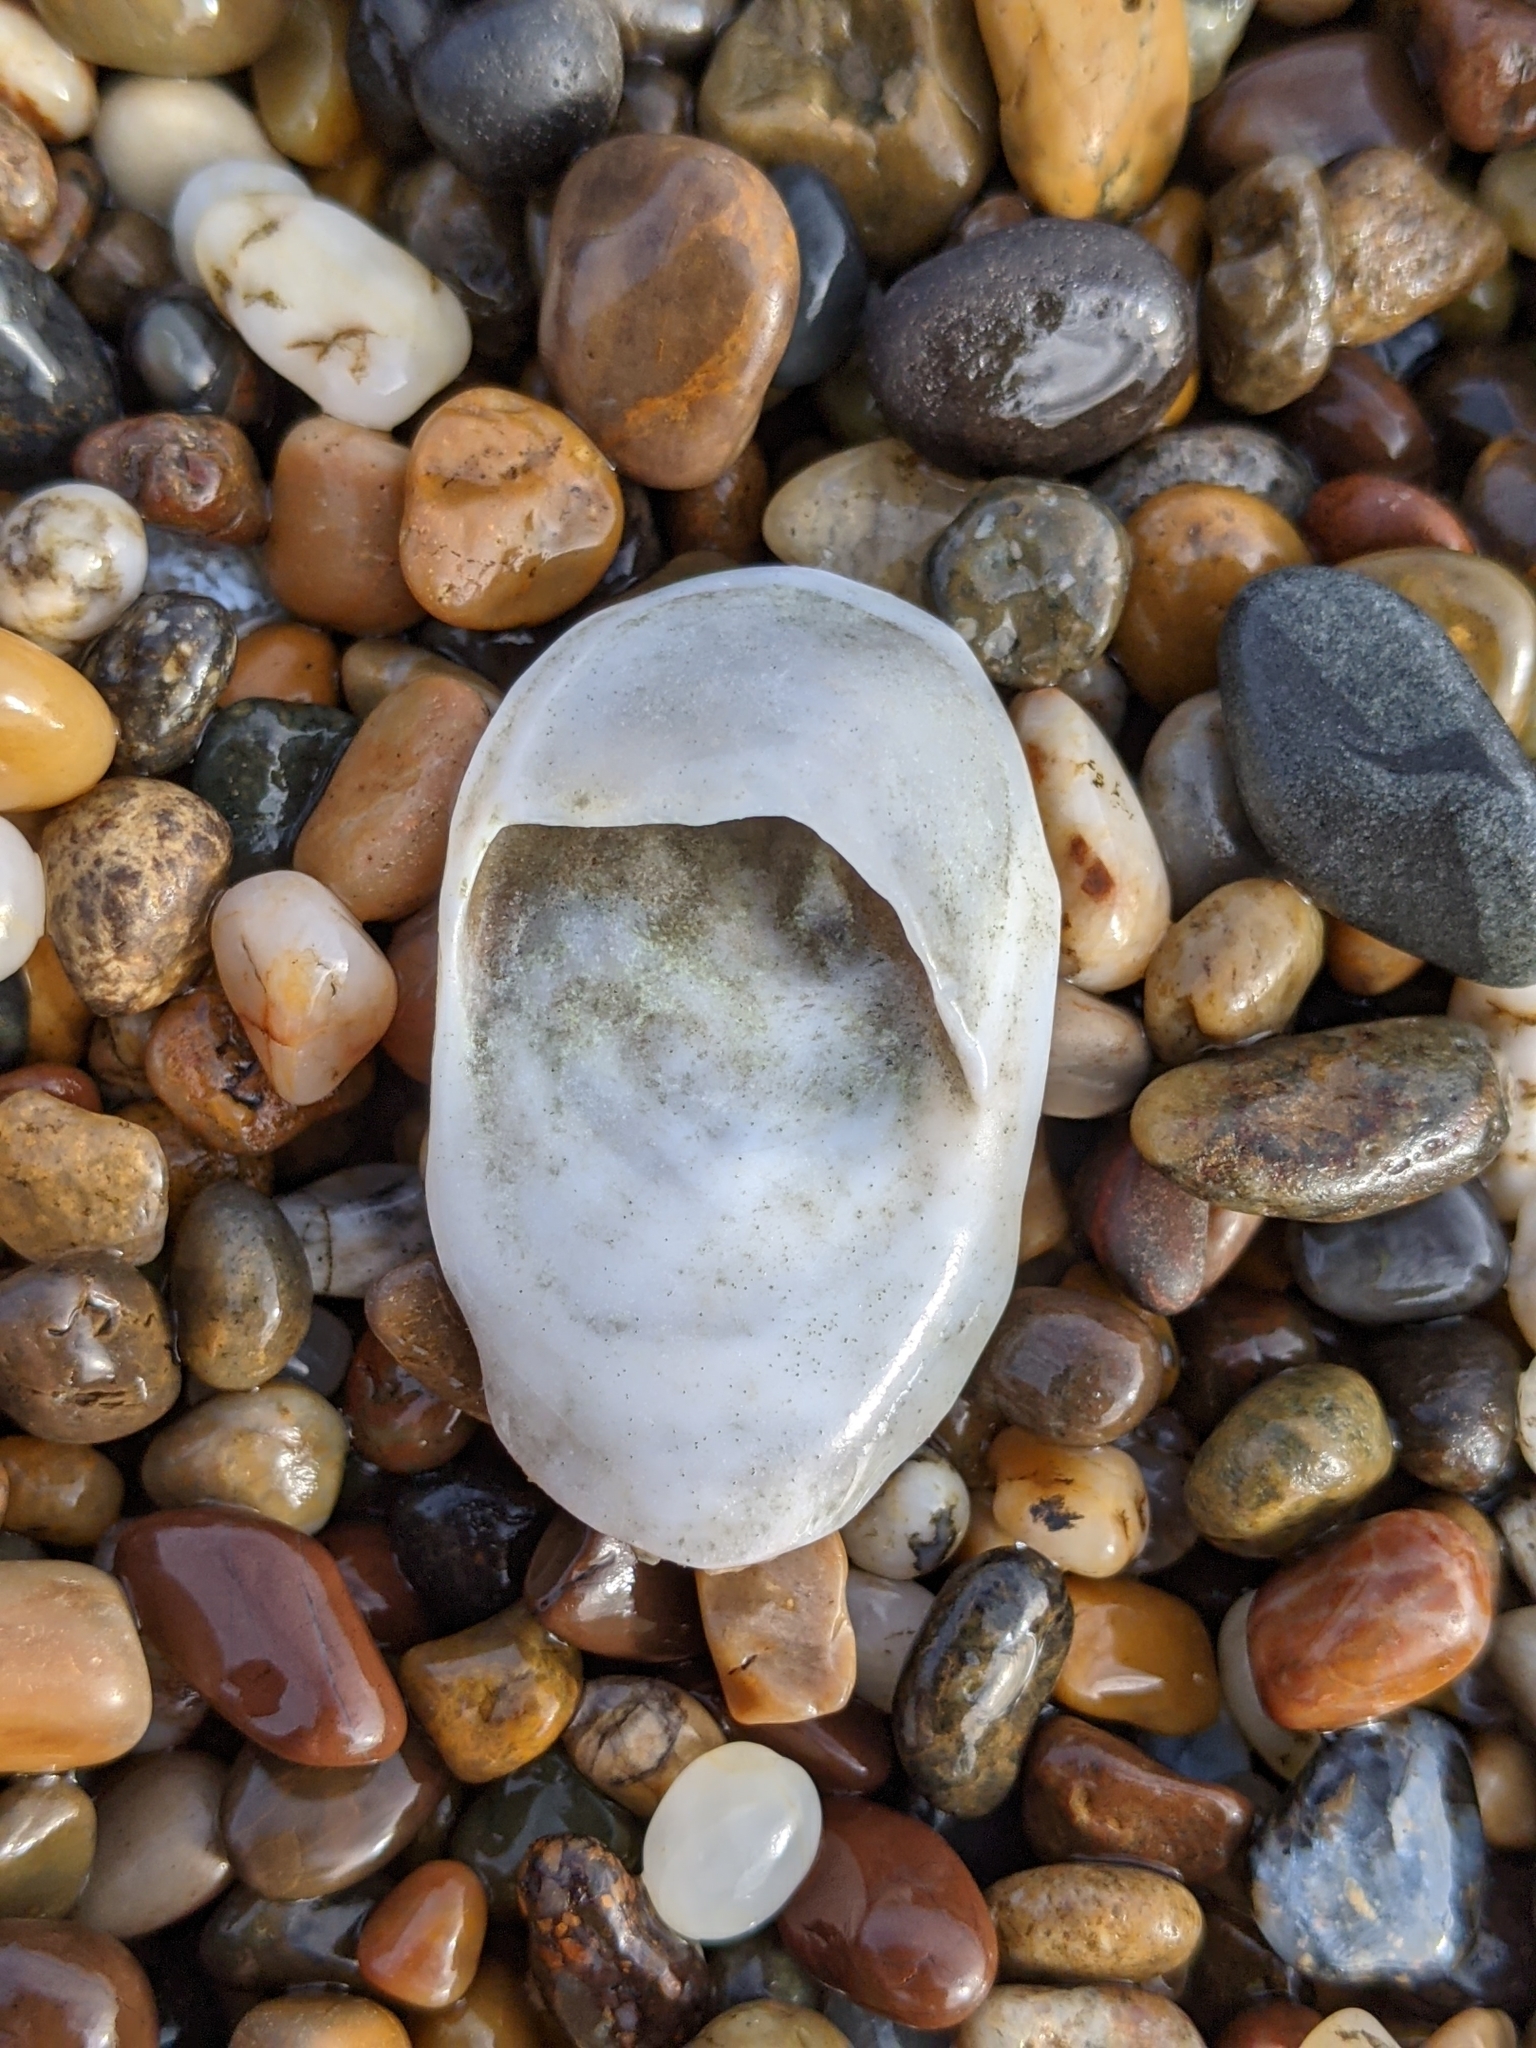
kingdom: Animalia
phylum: Mollusca
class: Gastropoda
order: Littorinimorpha
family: Calyptraeidae
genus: Crepidula
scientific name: Crepidula nummaria
